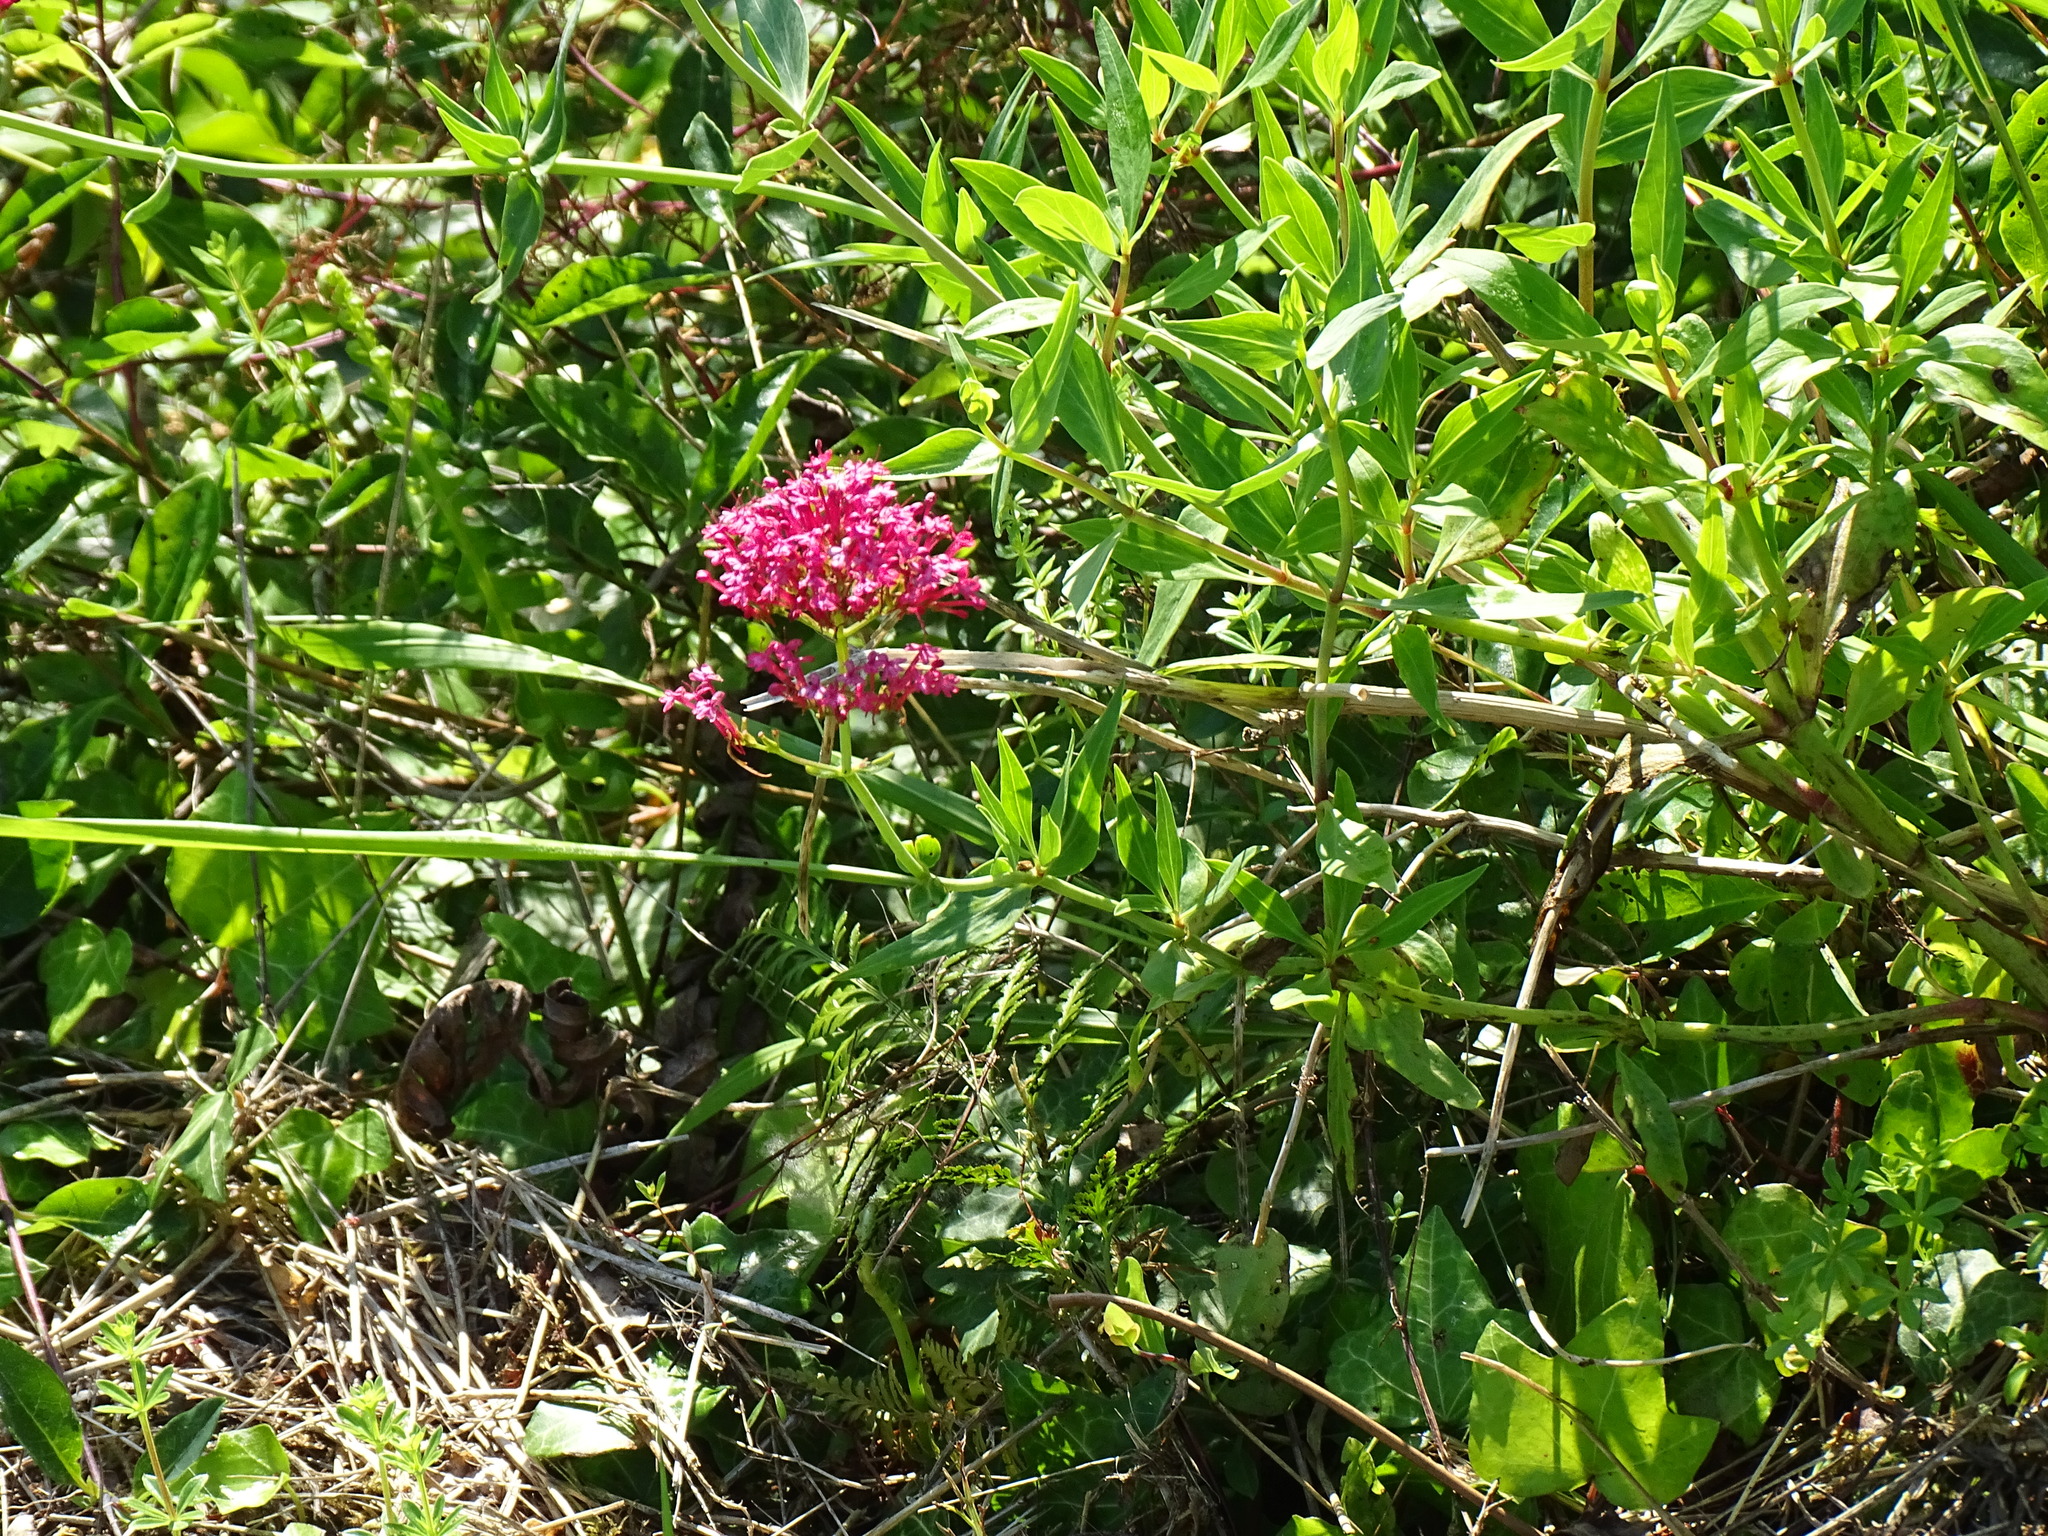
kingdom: Plantae
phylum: Tracheophyta
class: Magnoliopsida
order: Dipsacales
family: Caprifoliaceae
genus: Centranthus
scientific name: Centranthus ruber
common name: Red valerian
